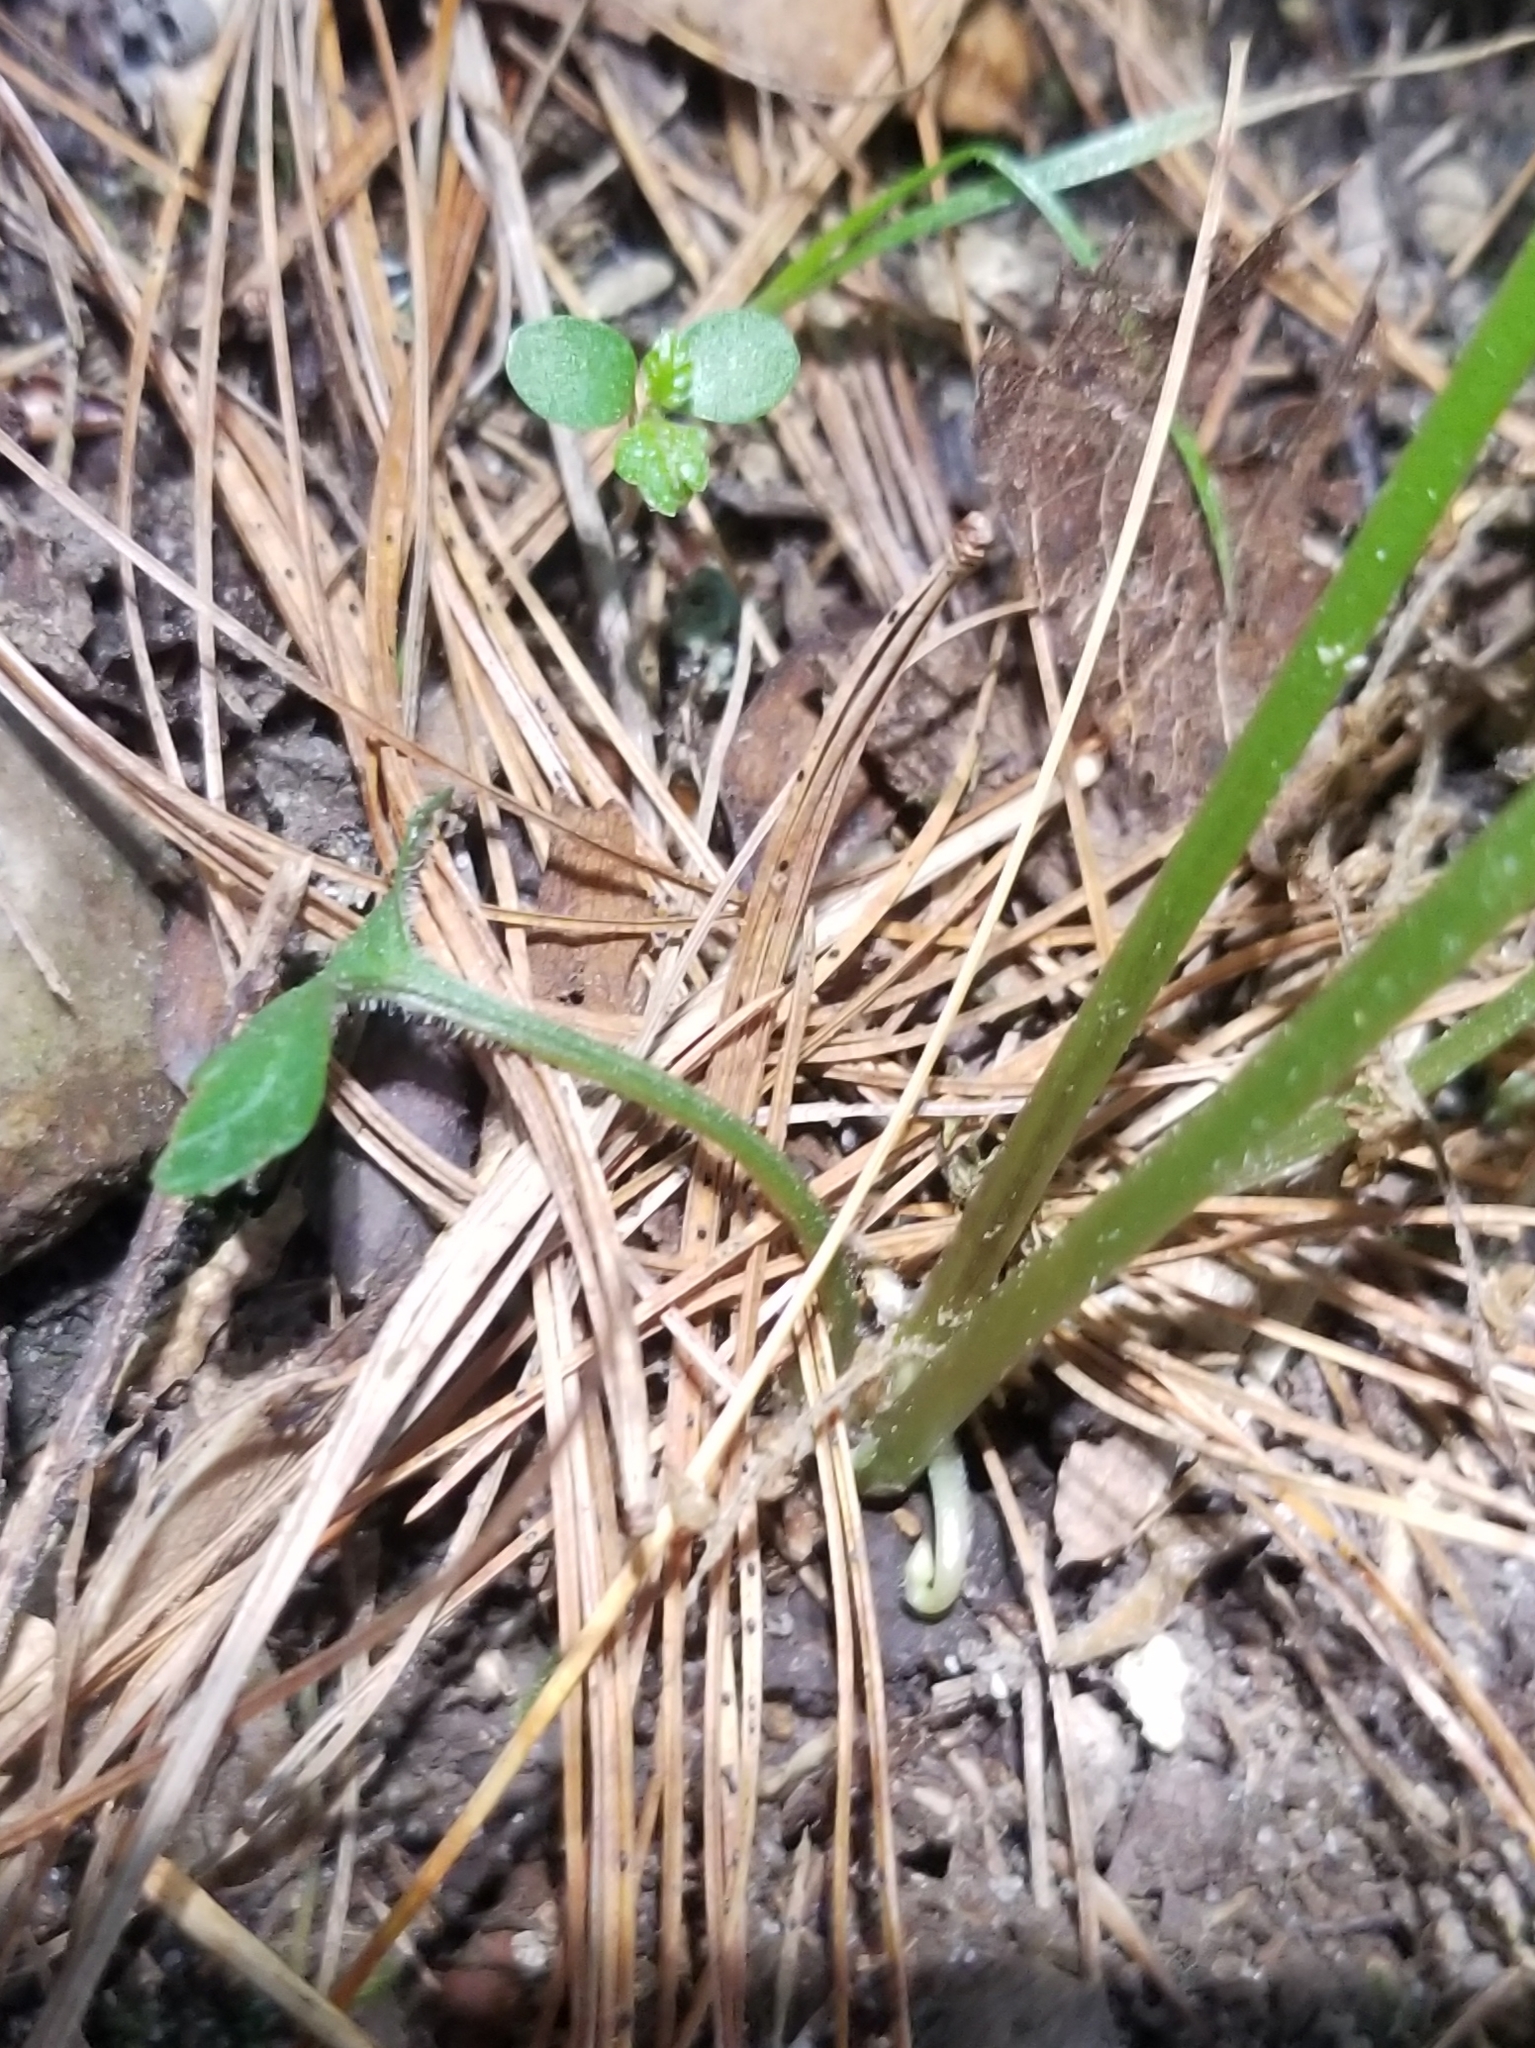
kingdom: Plantae
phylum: Tracheophyta
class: Magnoliopsida
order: Malpighiales
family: Violaceae
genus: Viola
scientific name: Viola sororia
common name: Dooryard violet
